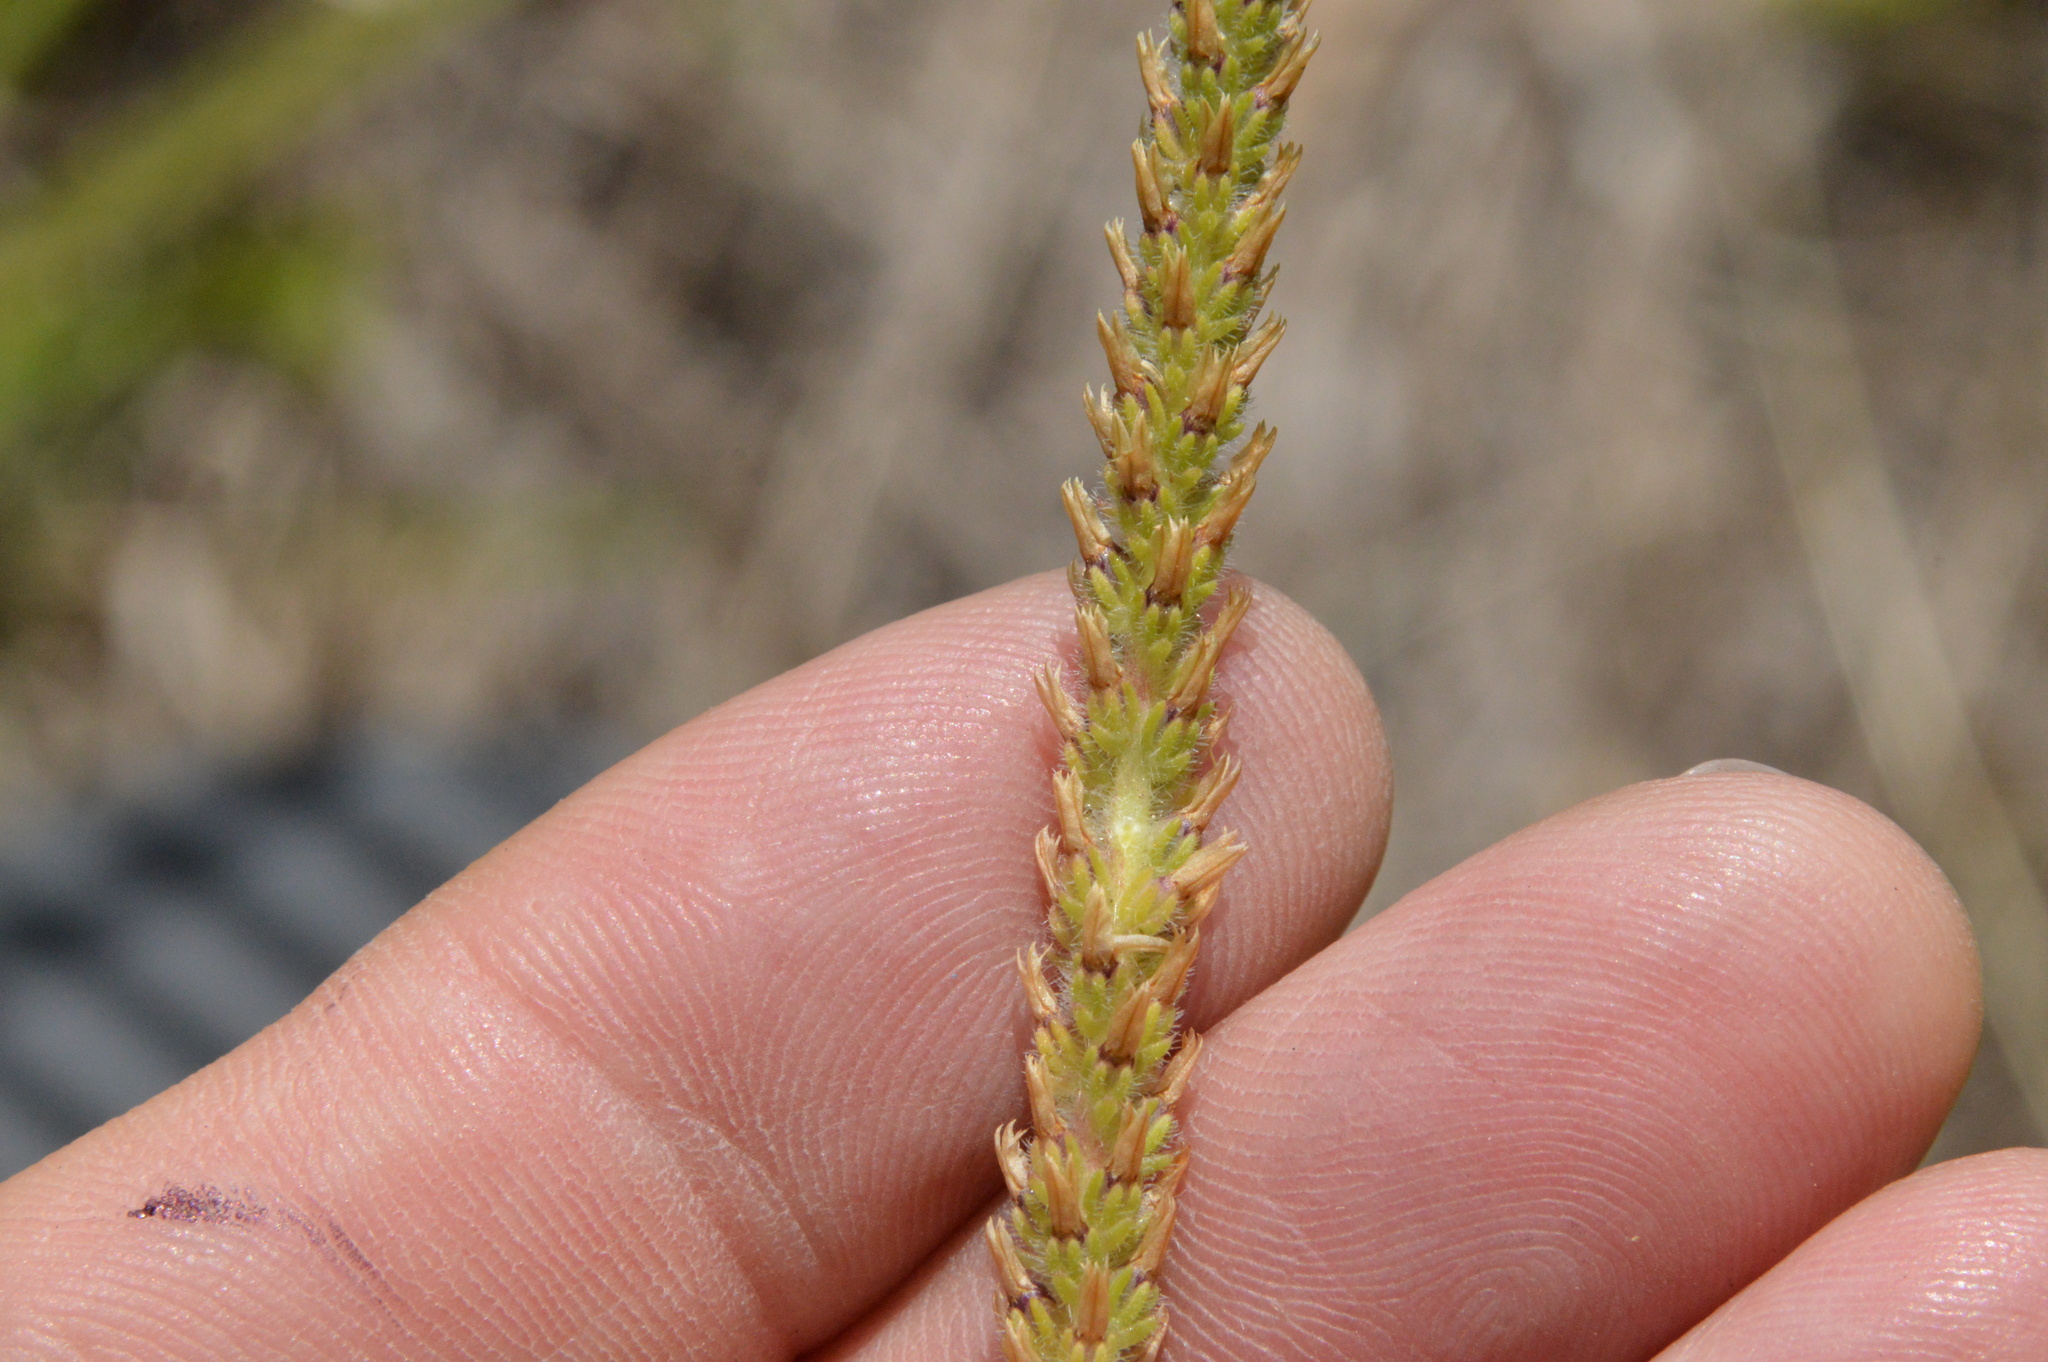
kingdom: Plantae
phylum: Tracheophyta
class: Magnoliopsida
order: Lamiales
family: Plantaginaceae
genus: Plantago
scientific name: Plantago virginica
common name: Hoary plantain
